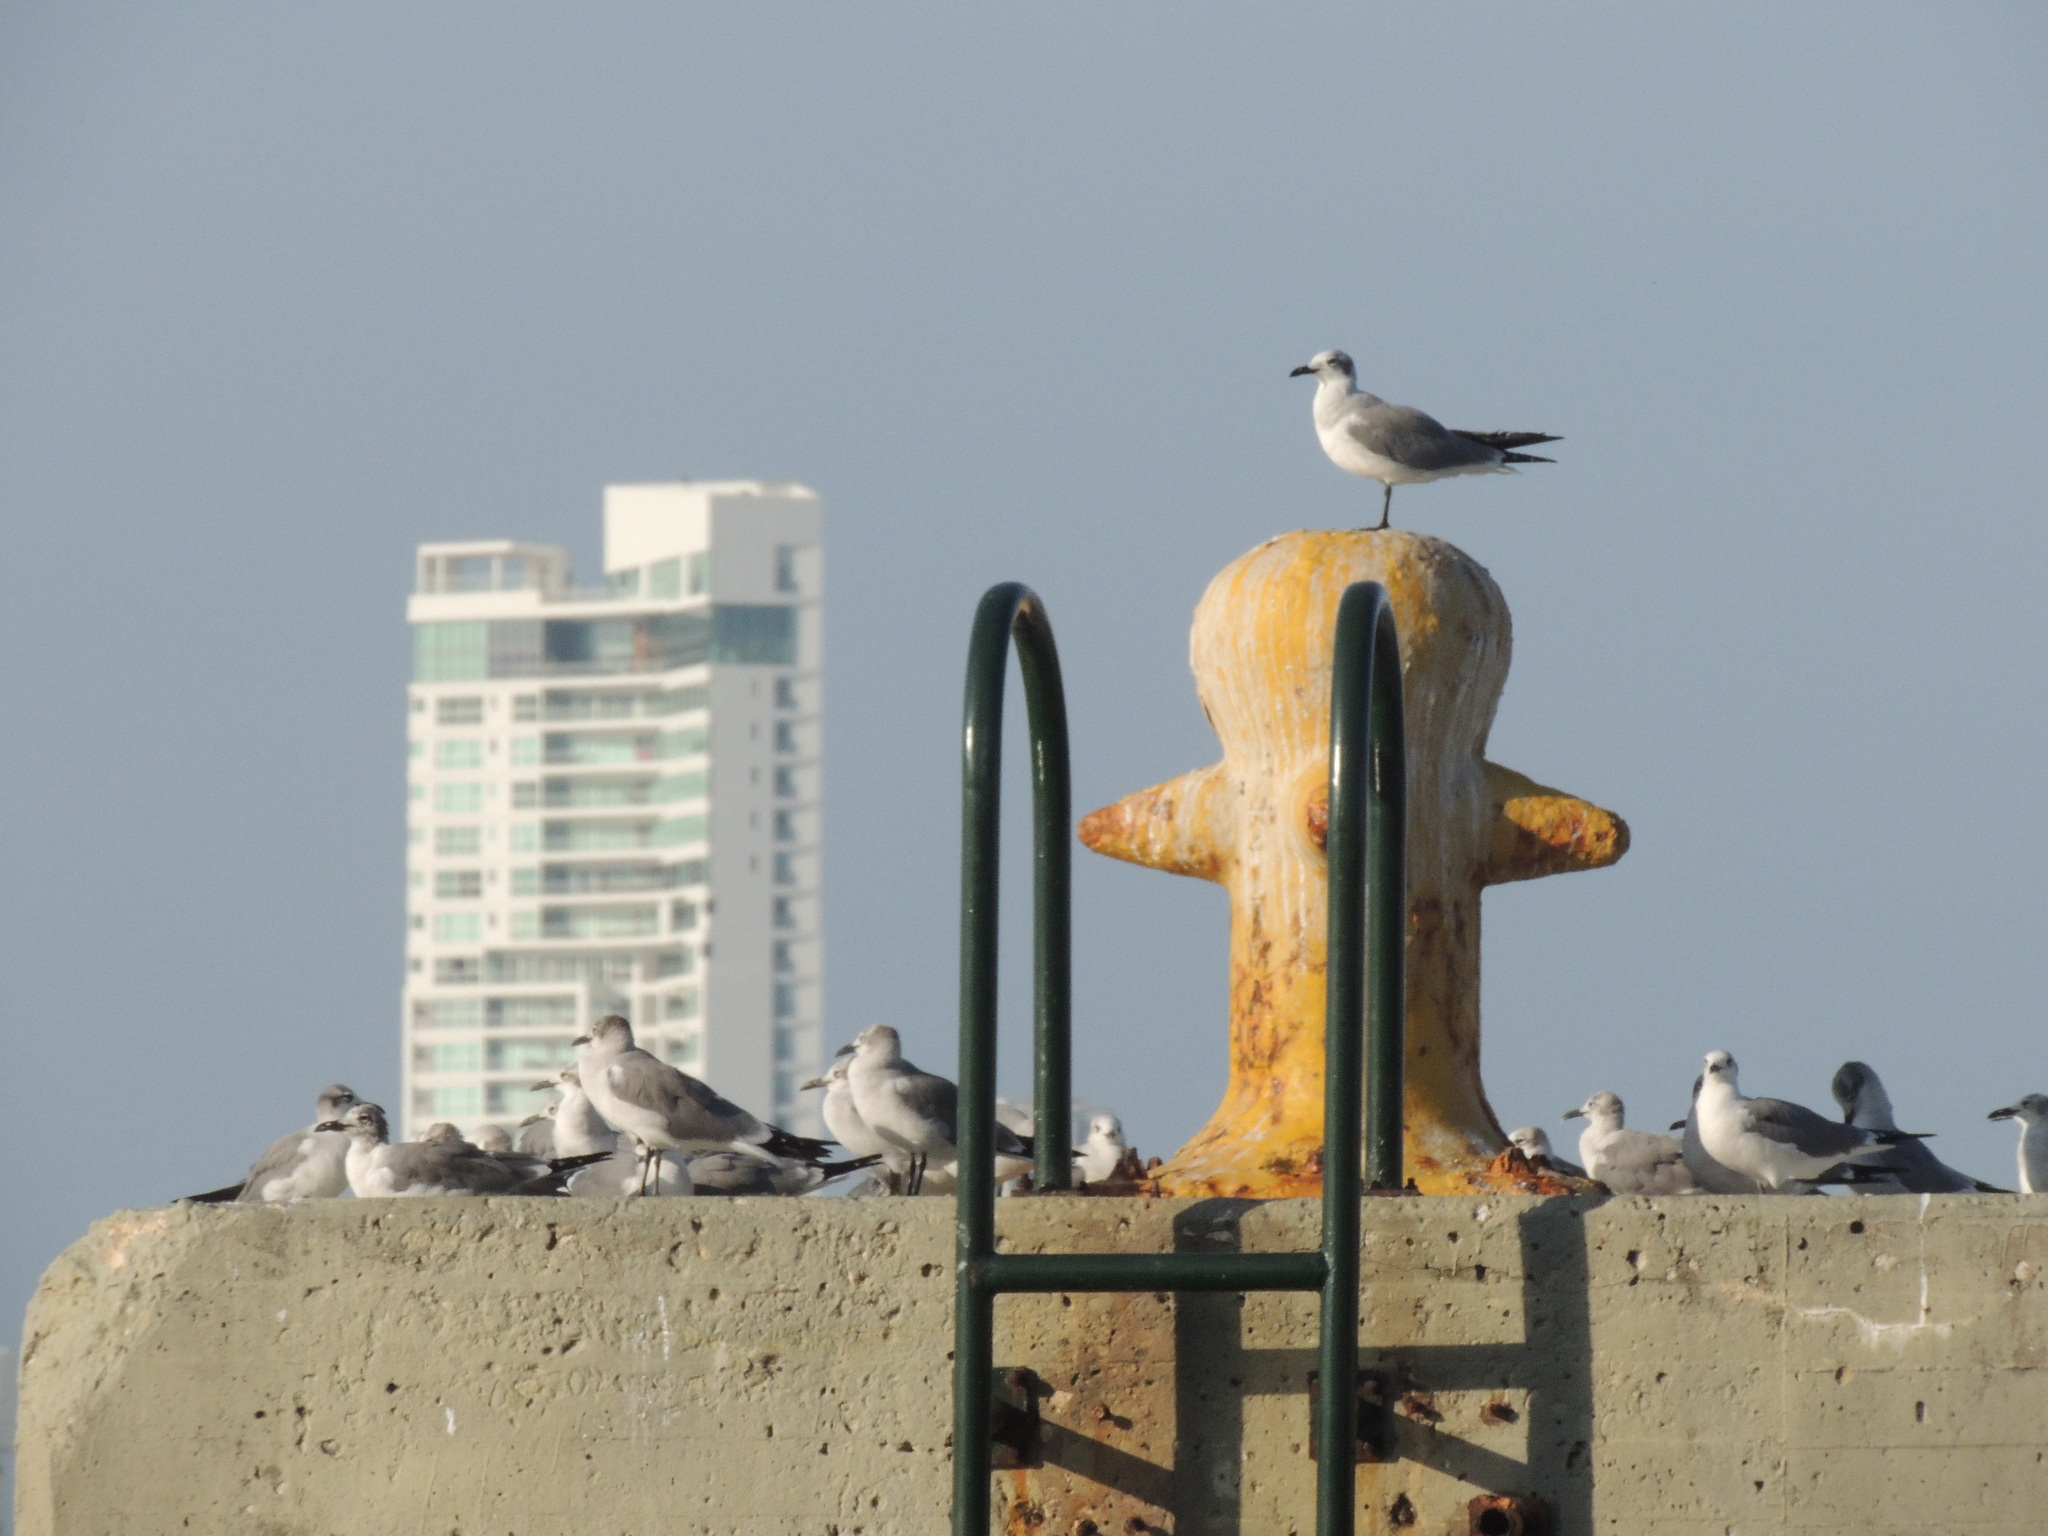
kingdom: Animalia
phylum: Chordata
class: Aves
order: Charadriiformes
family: Laridae
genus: Leucophaeus
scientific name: Leucophaeus atricilla
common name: Laughing gull
